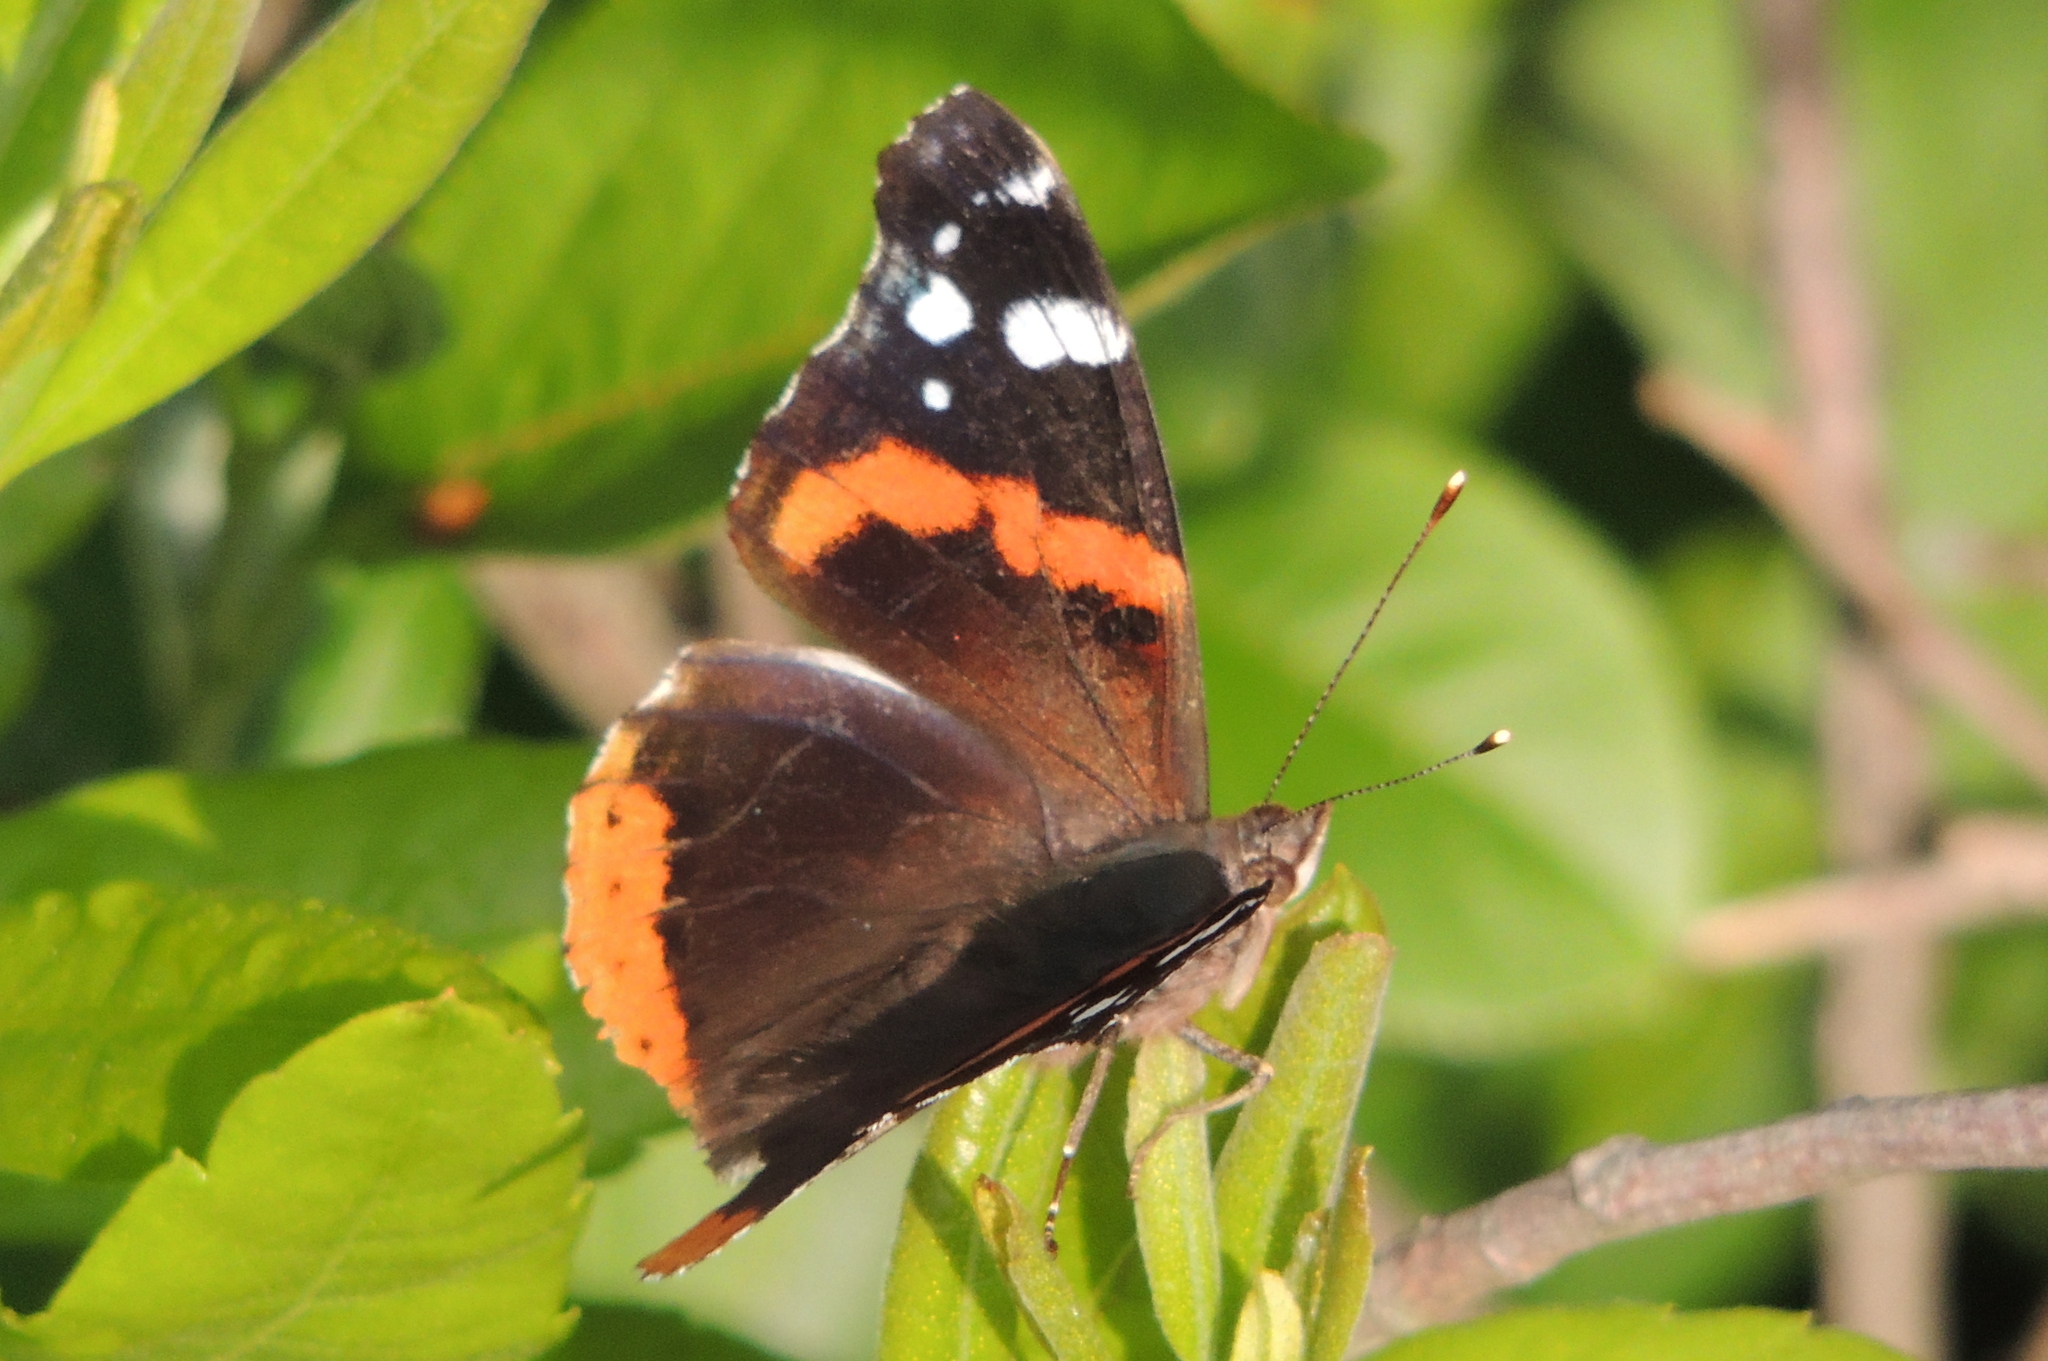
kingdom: Animalia
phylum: Arthropoda
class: Insecta
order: Lepidoptera
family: Nymphalidae
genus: Vanessa
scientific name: Vanessa atalanta
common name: Red admiral
